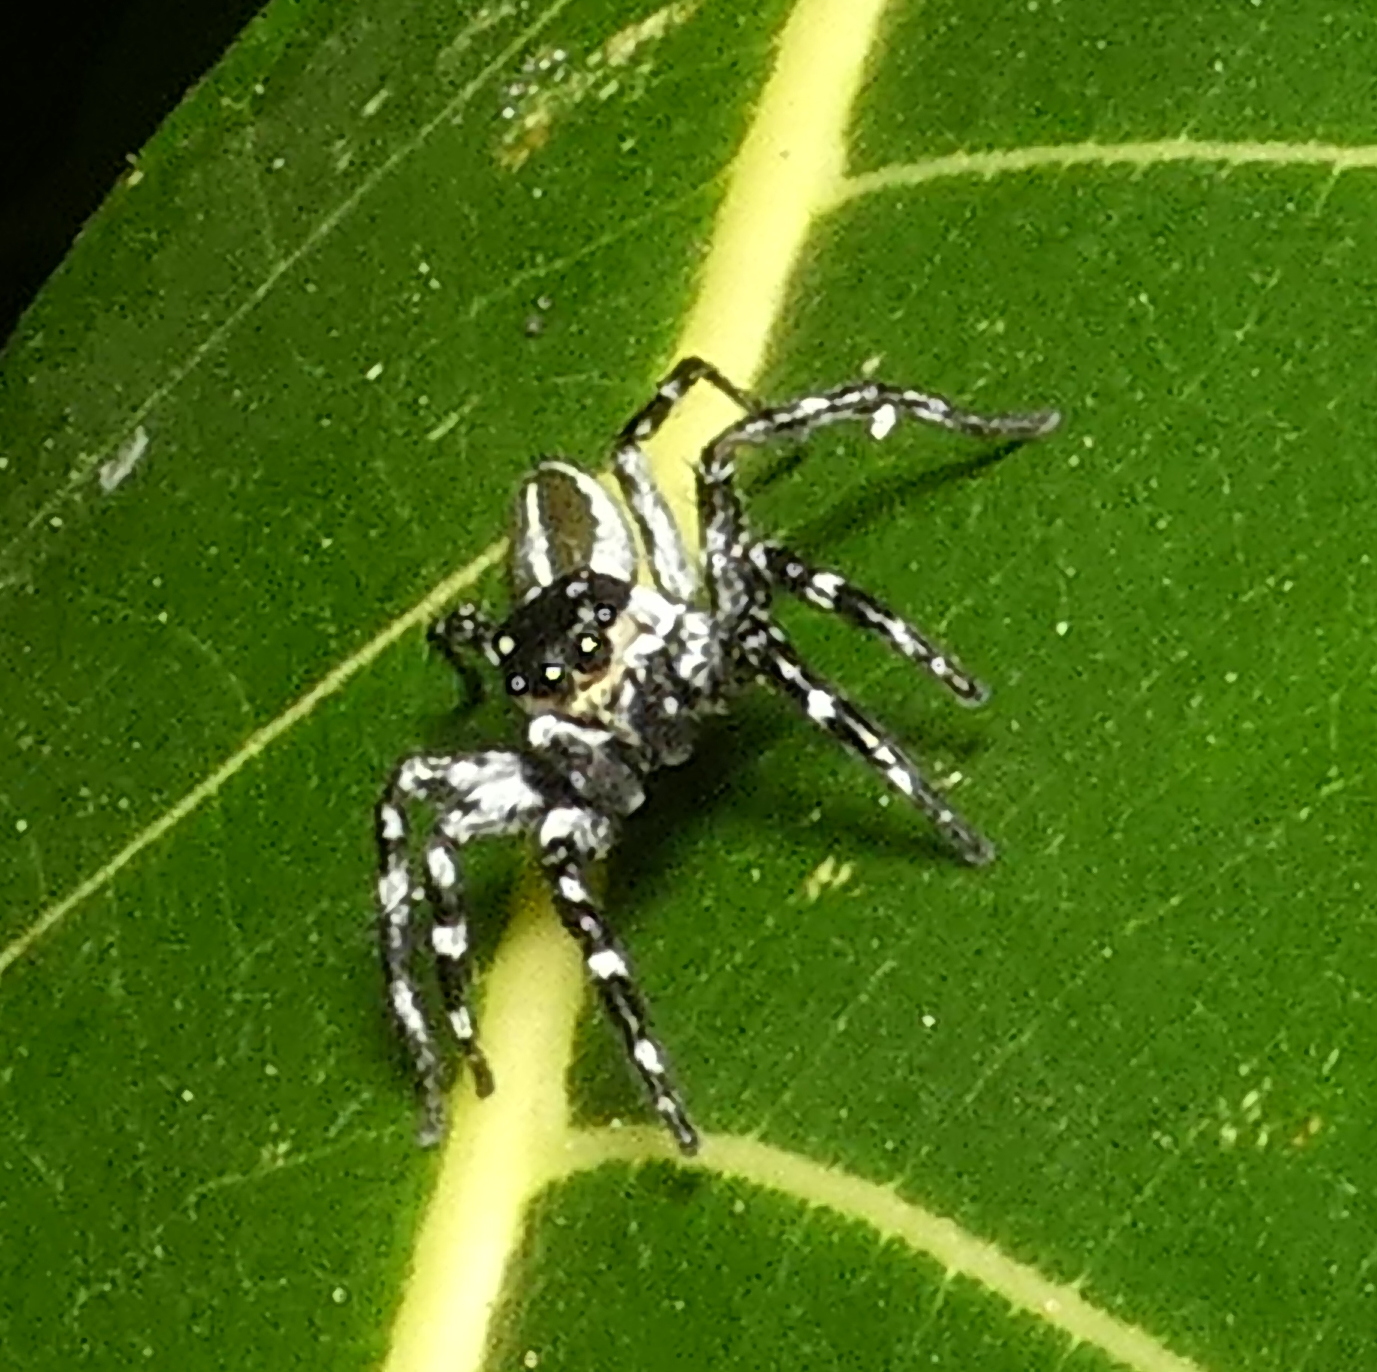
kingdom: Animalia
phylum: Arthropoda
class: Arachnida
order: Araneae
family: Salticidae
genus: Phiale
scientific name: Phiale tristis
